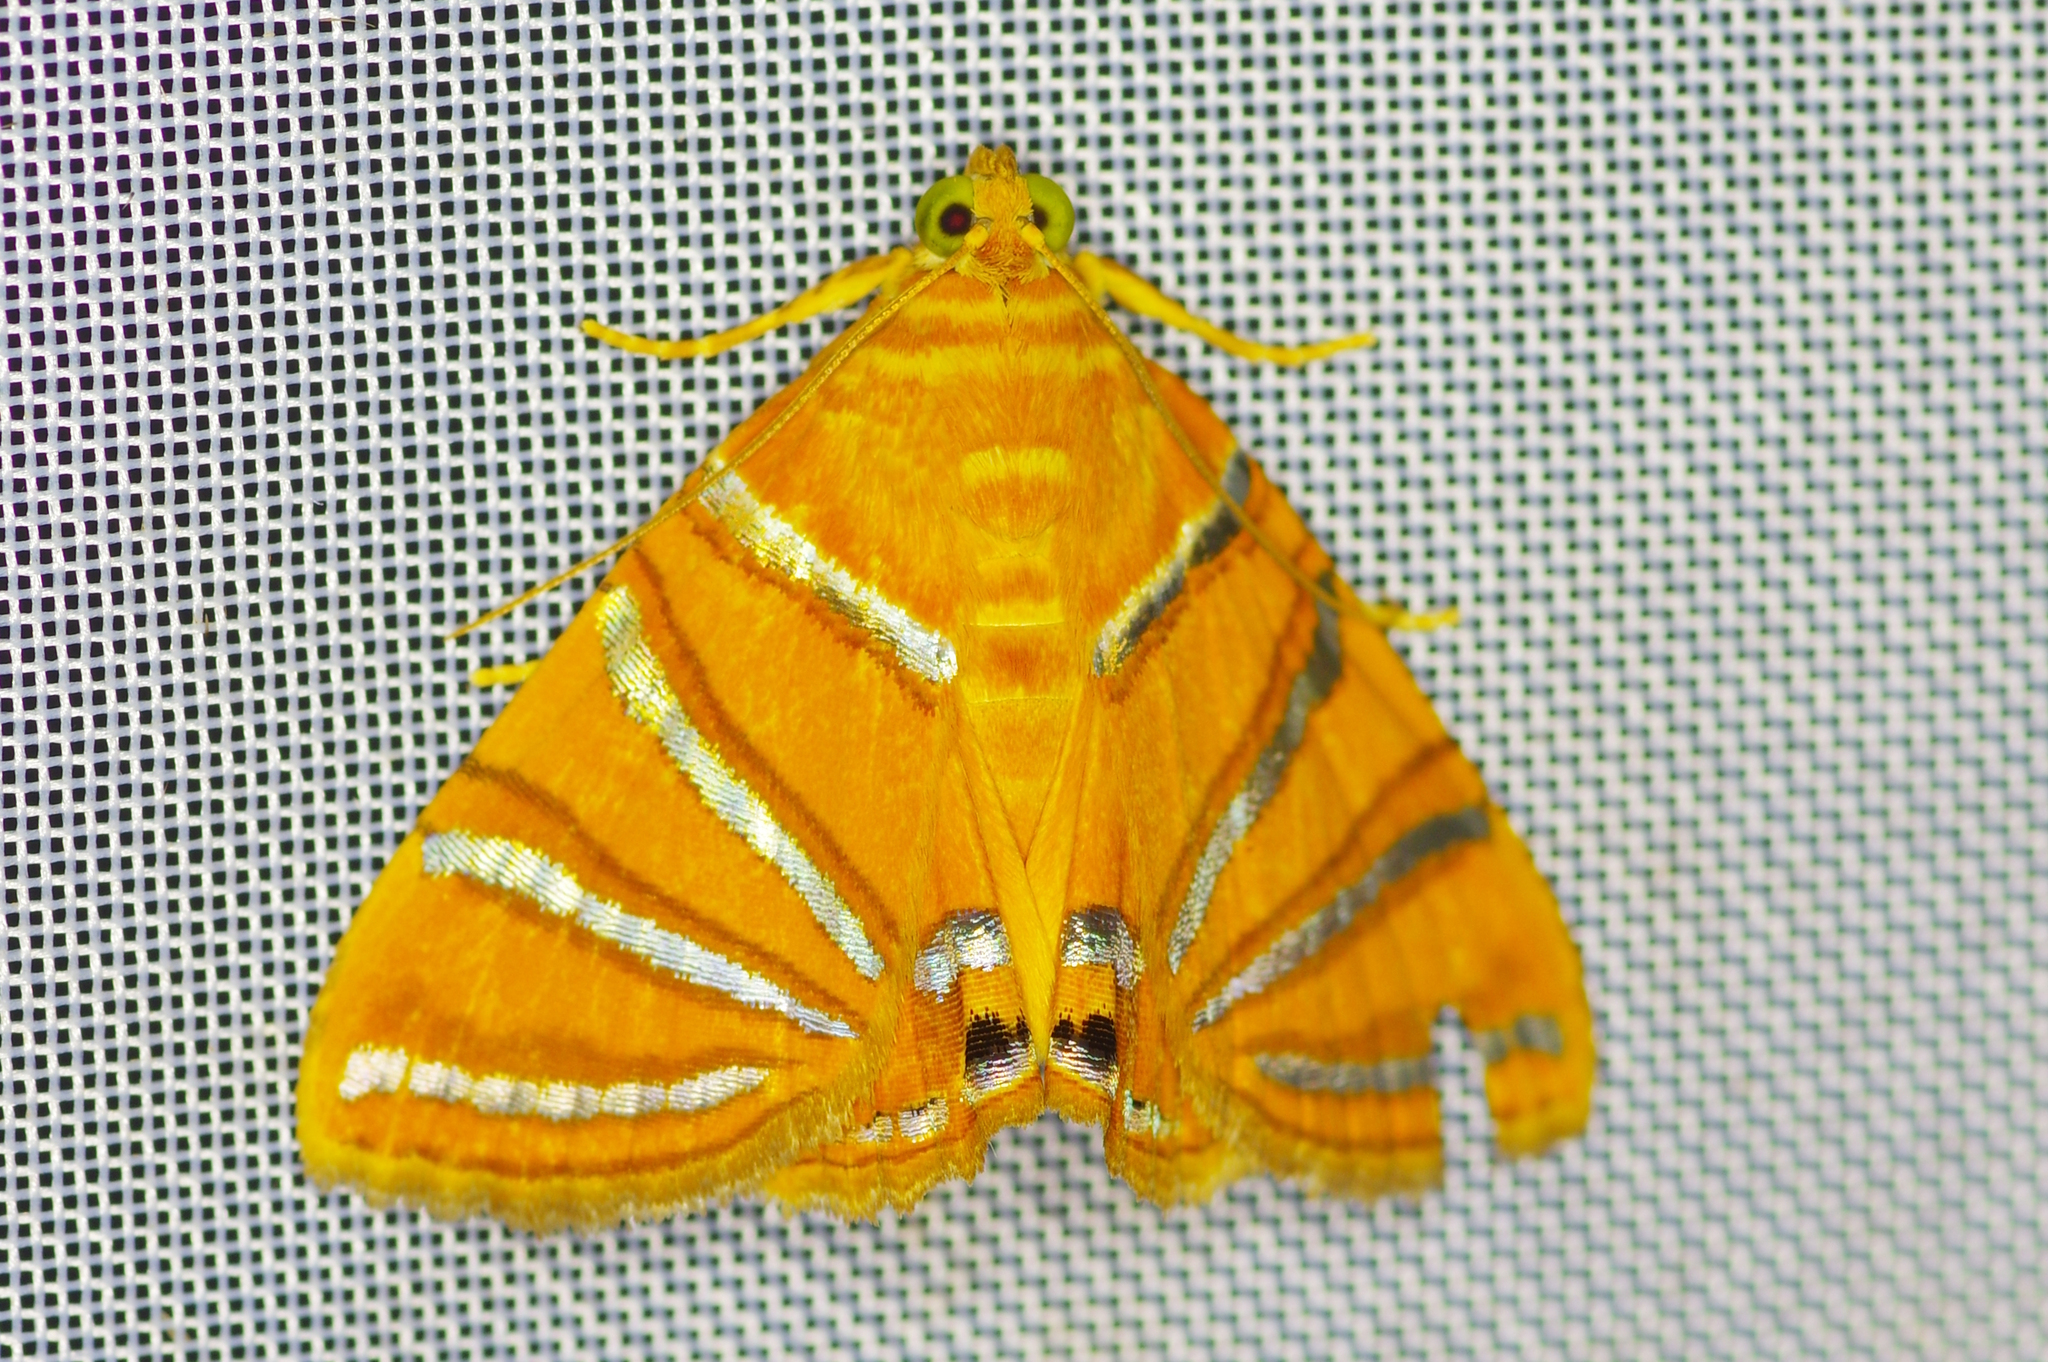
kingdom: Animalia
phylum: Arthropoda
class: Insecta
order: Lepidoptera
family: Erebidae
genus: Eulepidotis
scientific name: Eulepidotis crocoptera
